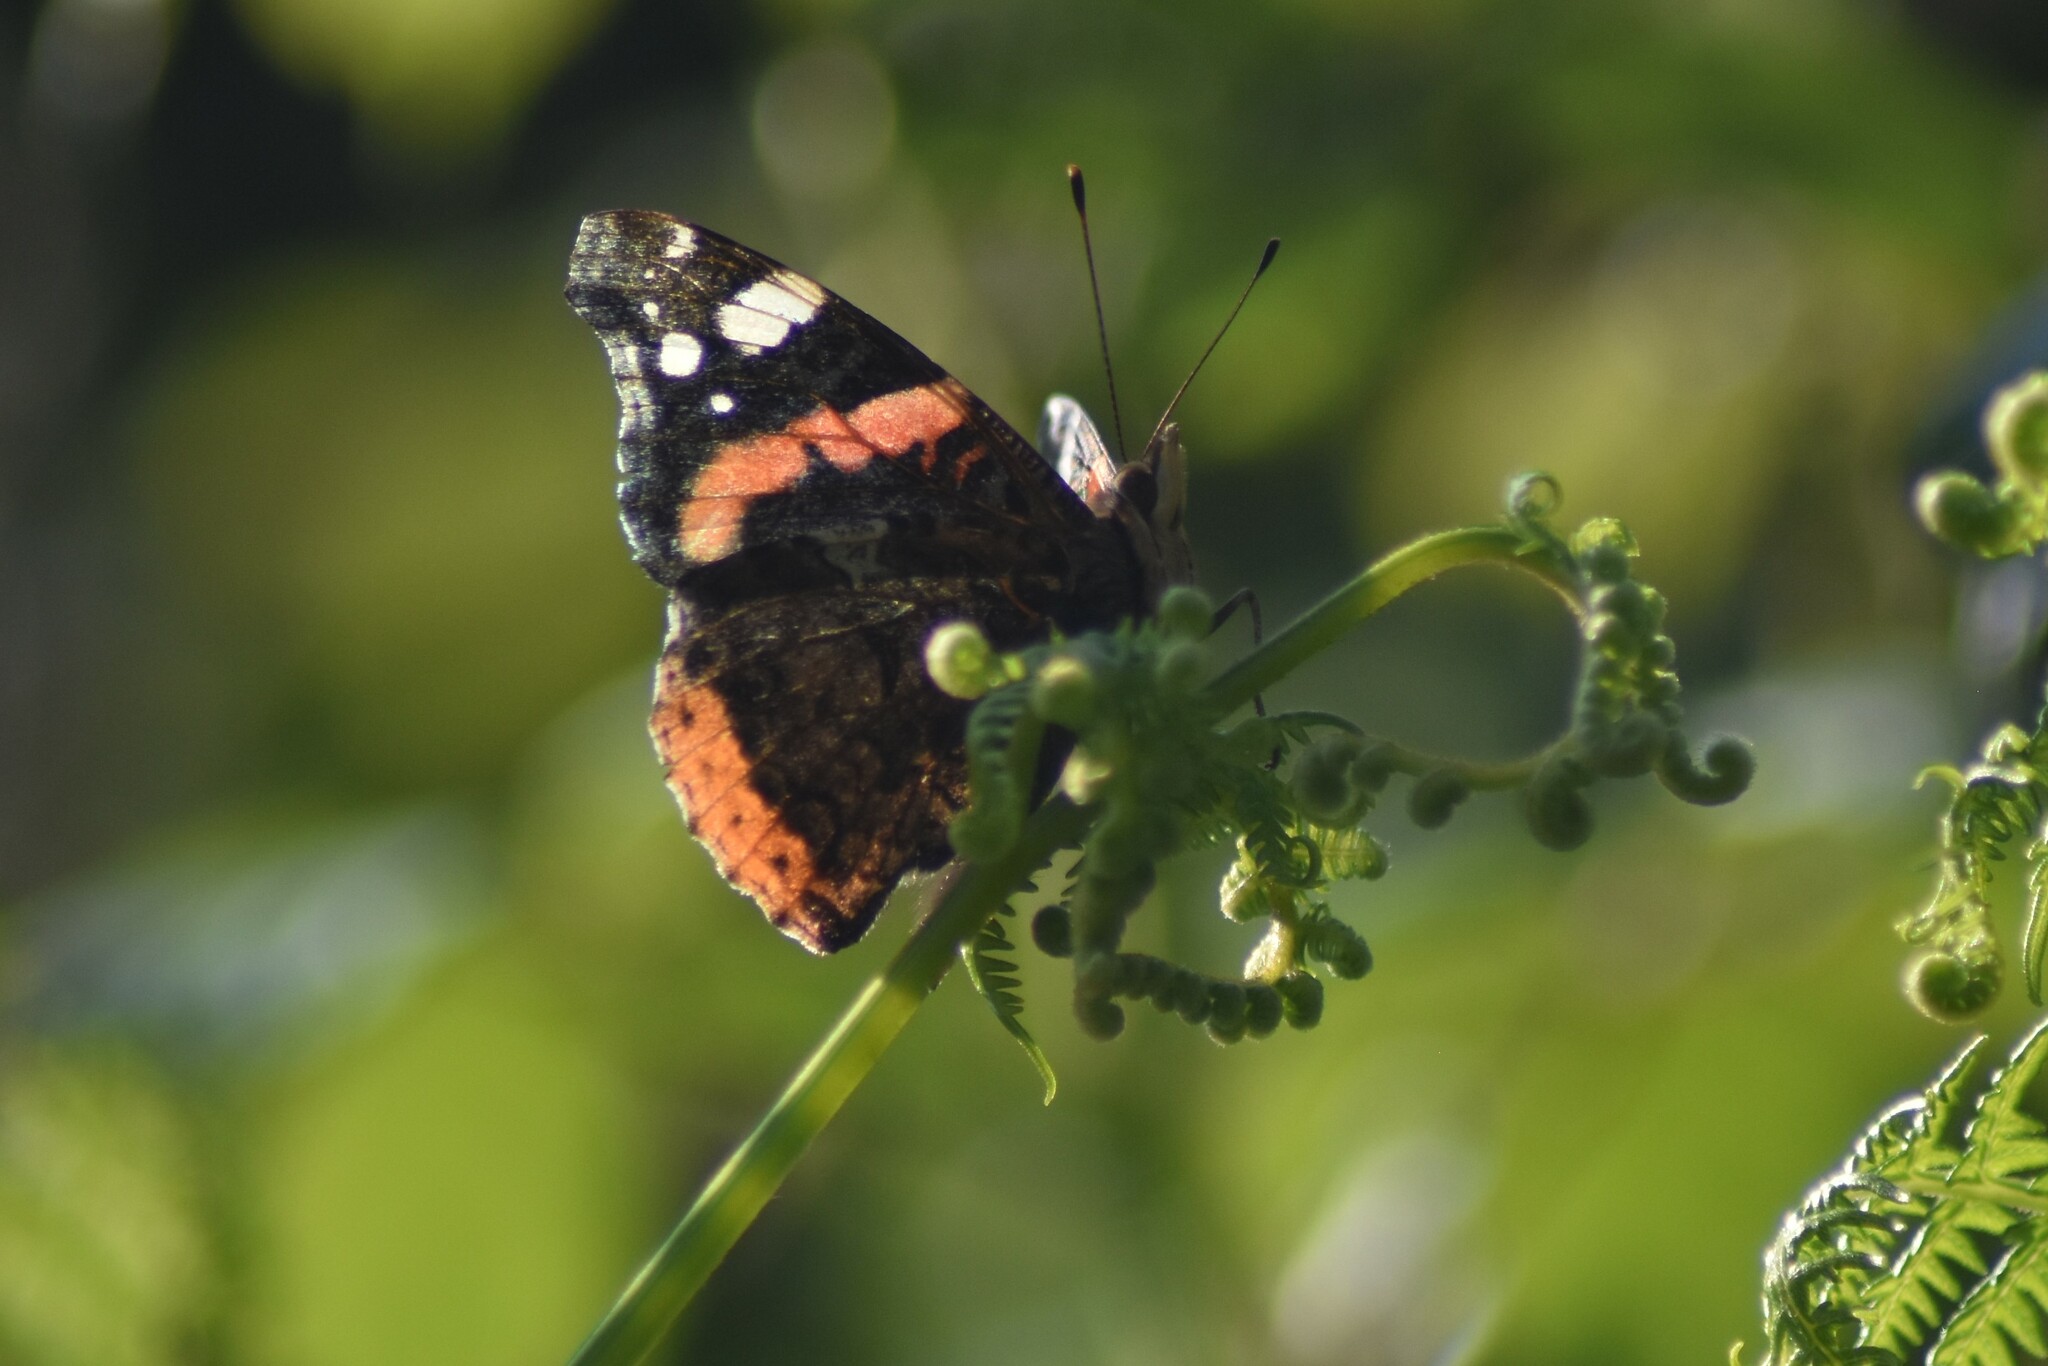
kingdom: Animalia
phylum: Arthropoda
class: Insecta
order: Lepidoptera
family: Nymphalidae
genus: Vanessa
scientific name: Vanessa atalanta
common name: Red admiral
